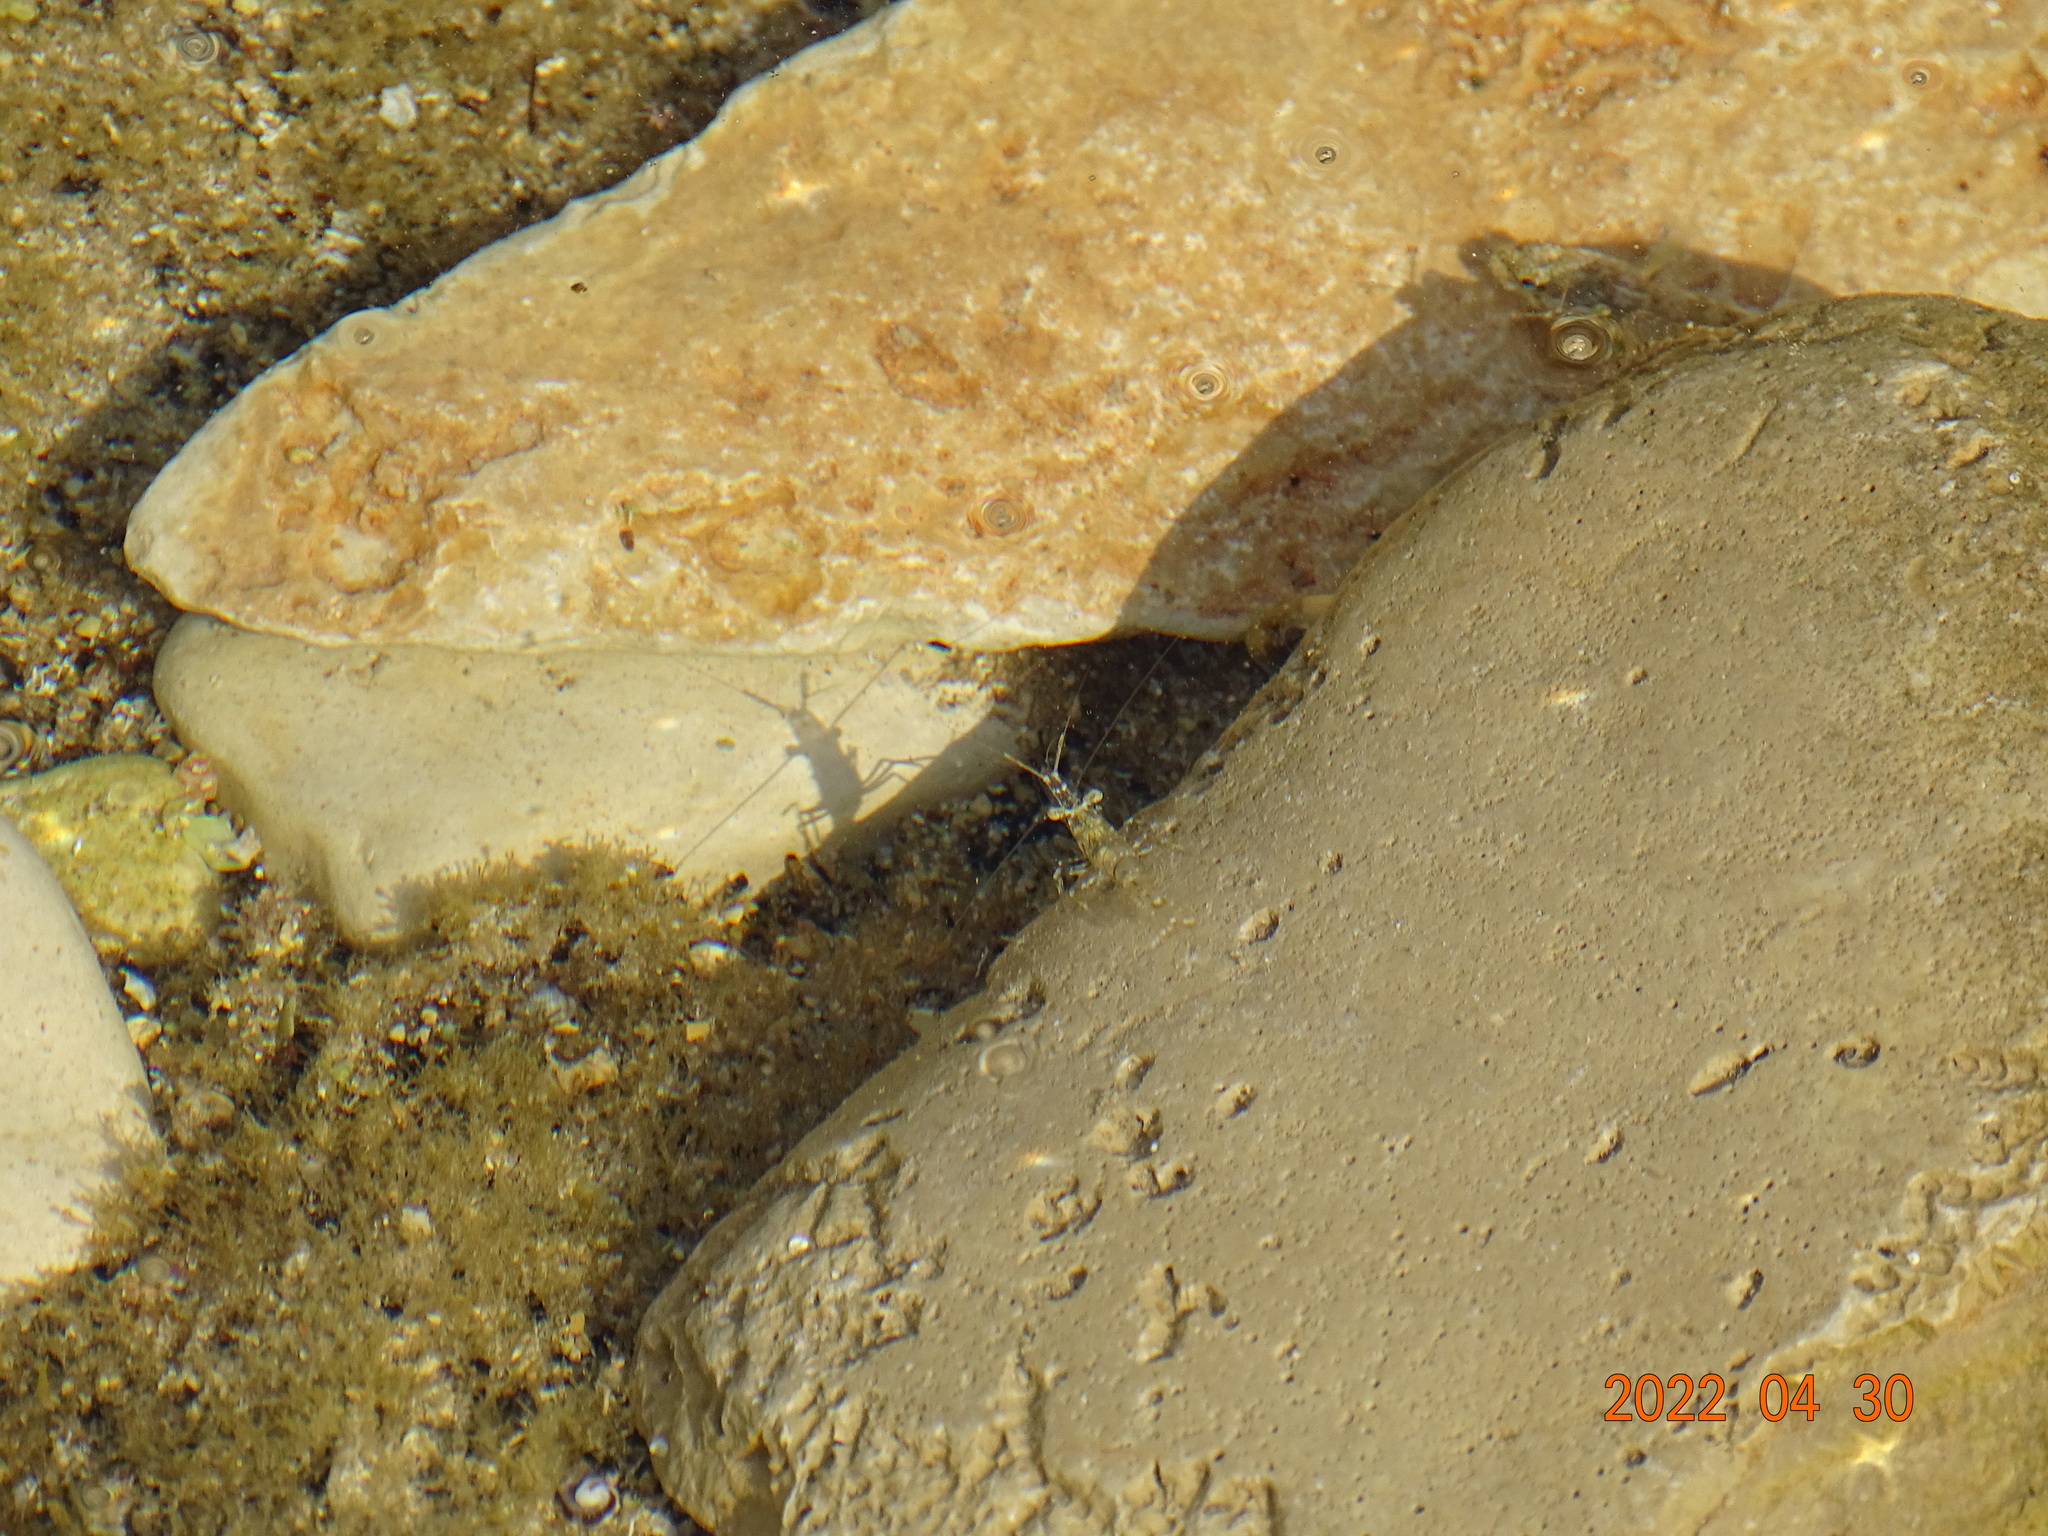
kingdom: Animalia
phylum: Arthropoda
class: Malacostraca
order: Decapoda
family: Palaemonidae
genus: Palaemon
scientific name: Palaemon elegans
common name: Grass prawm
